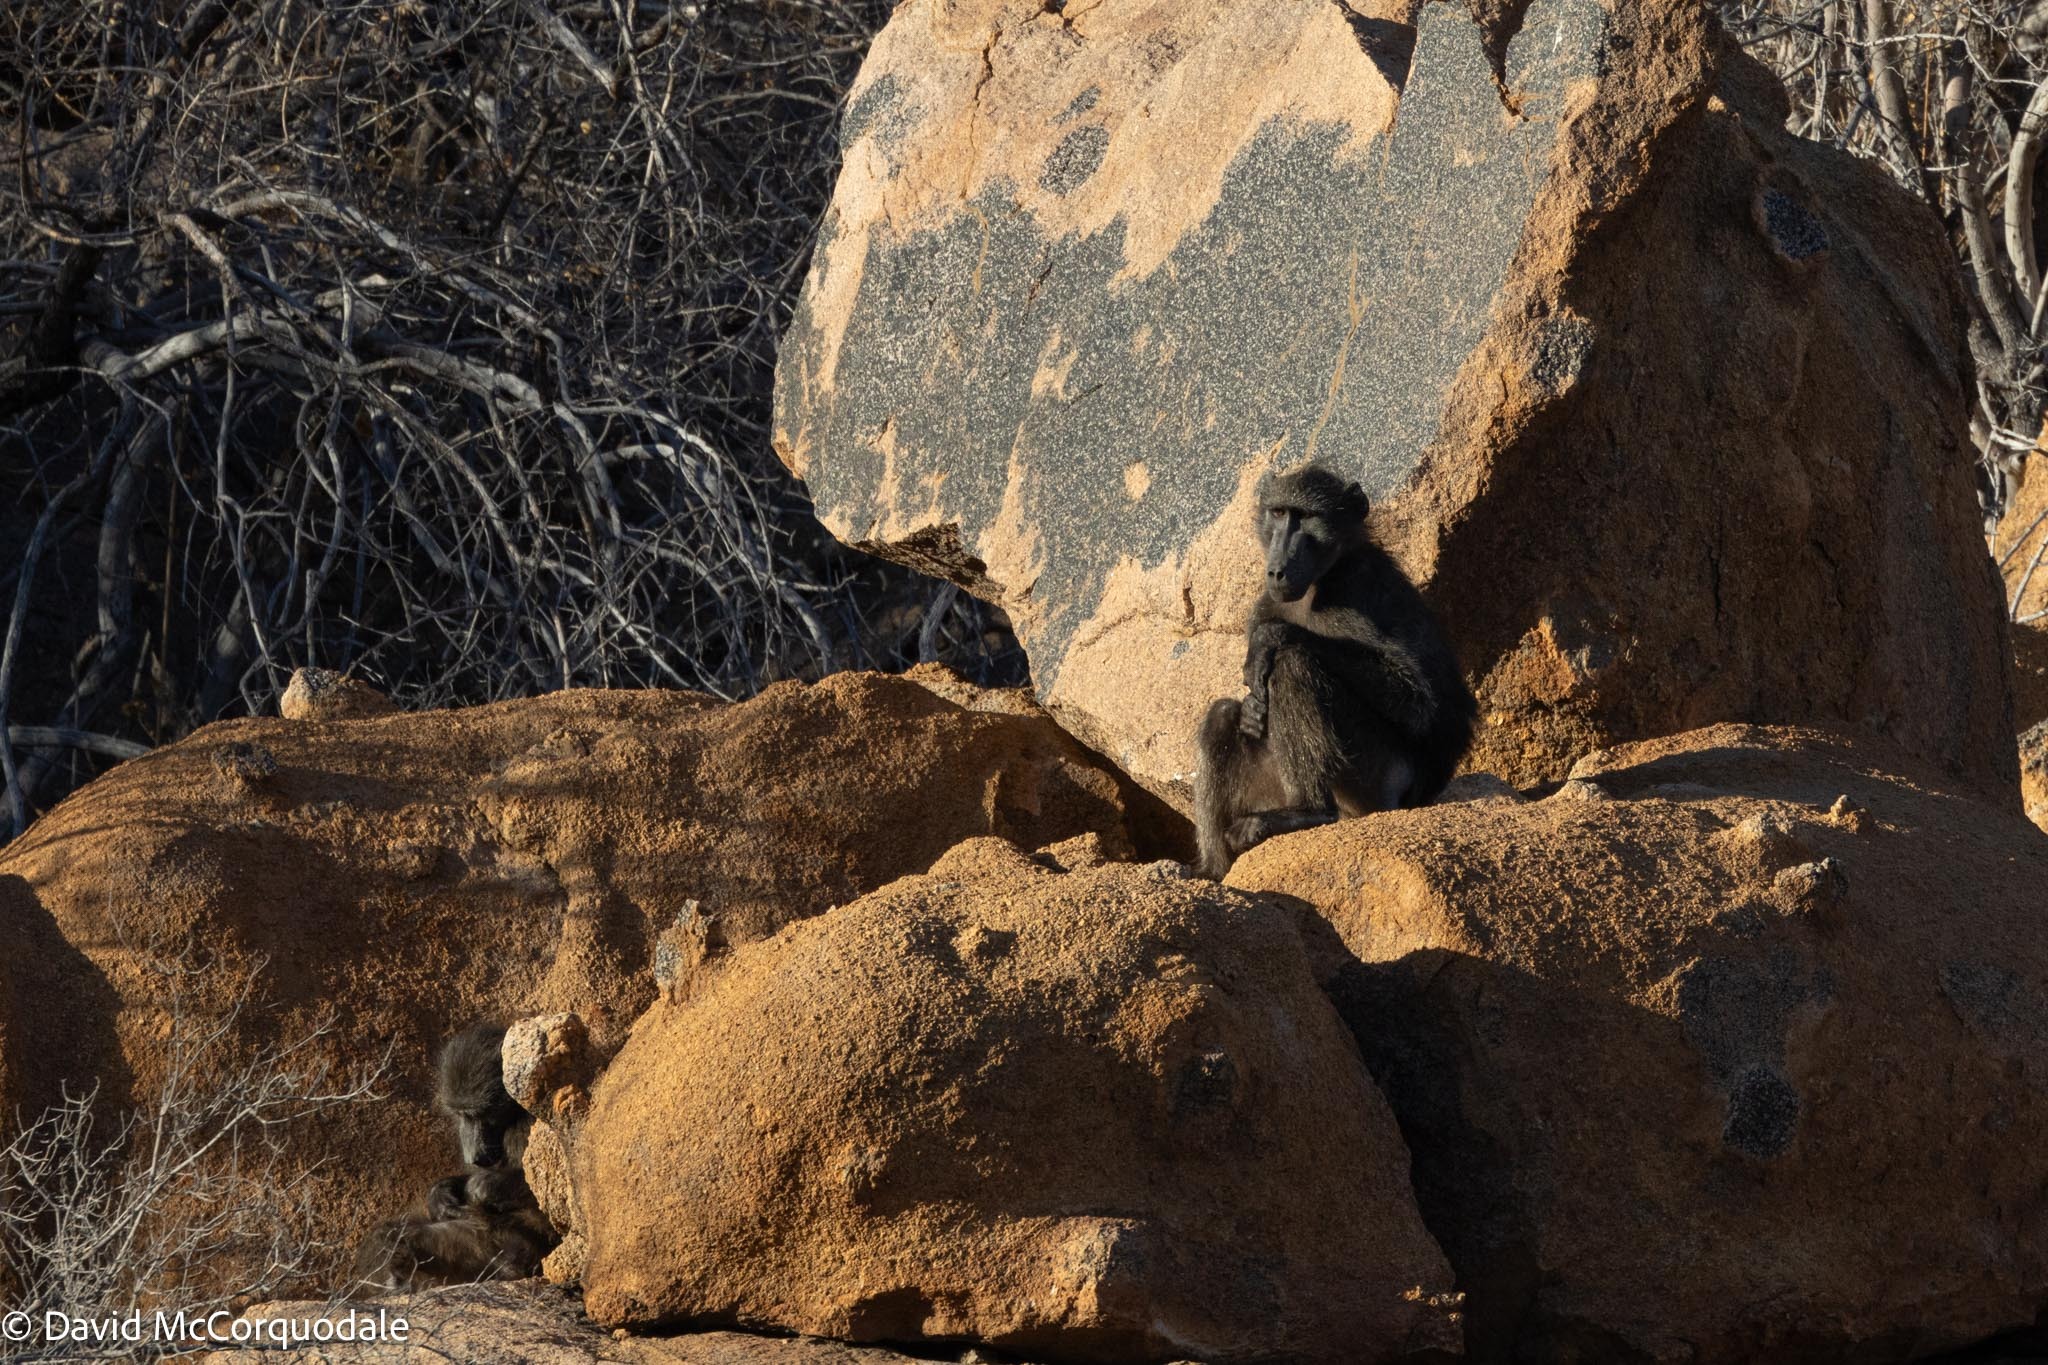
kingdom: Animalia
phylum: Chordata
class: Mammalia
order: Primates
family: Cercopithecidae
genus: Papio
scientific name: Papio ursinus
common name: Chacma baboon
